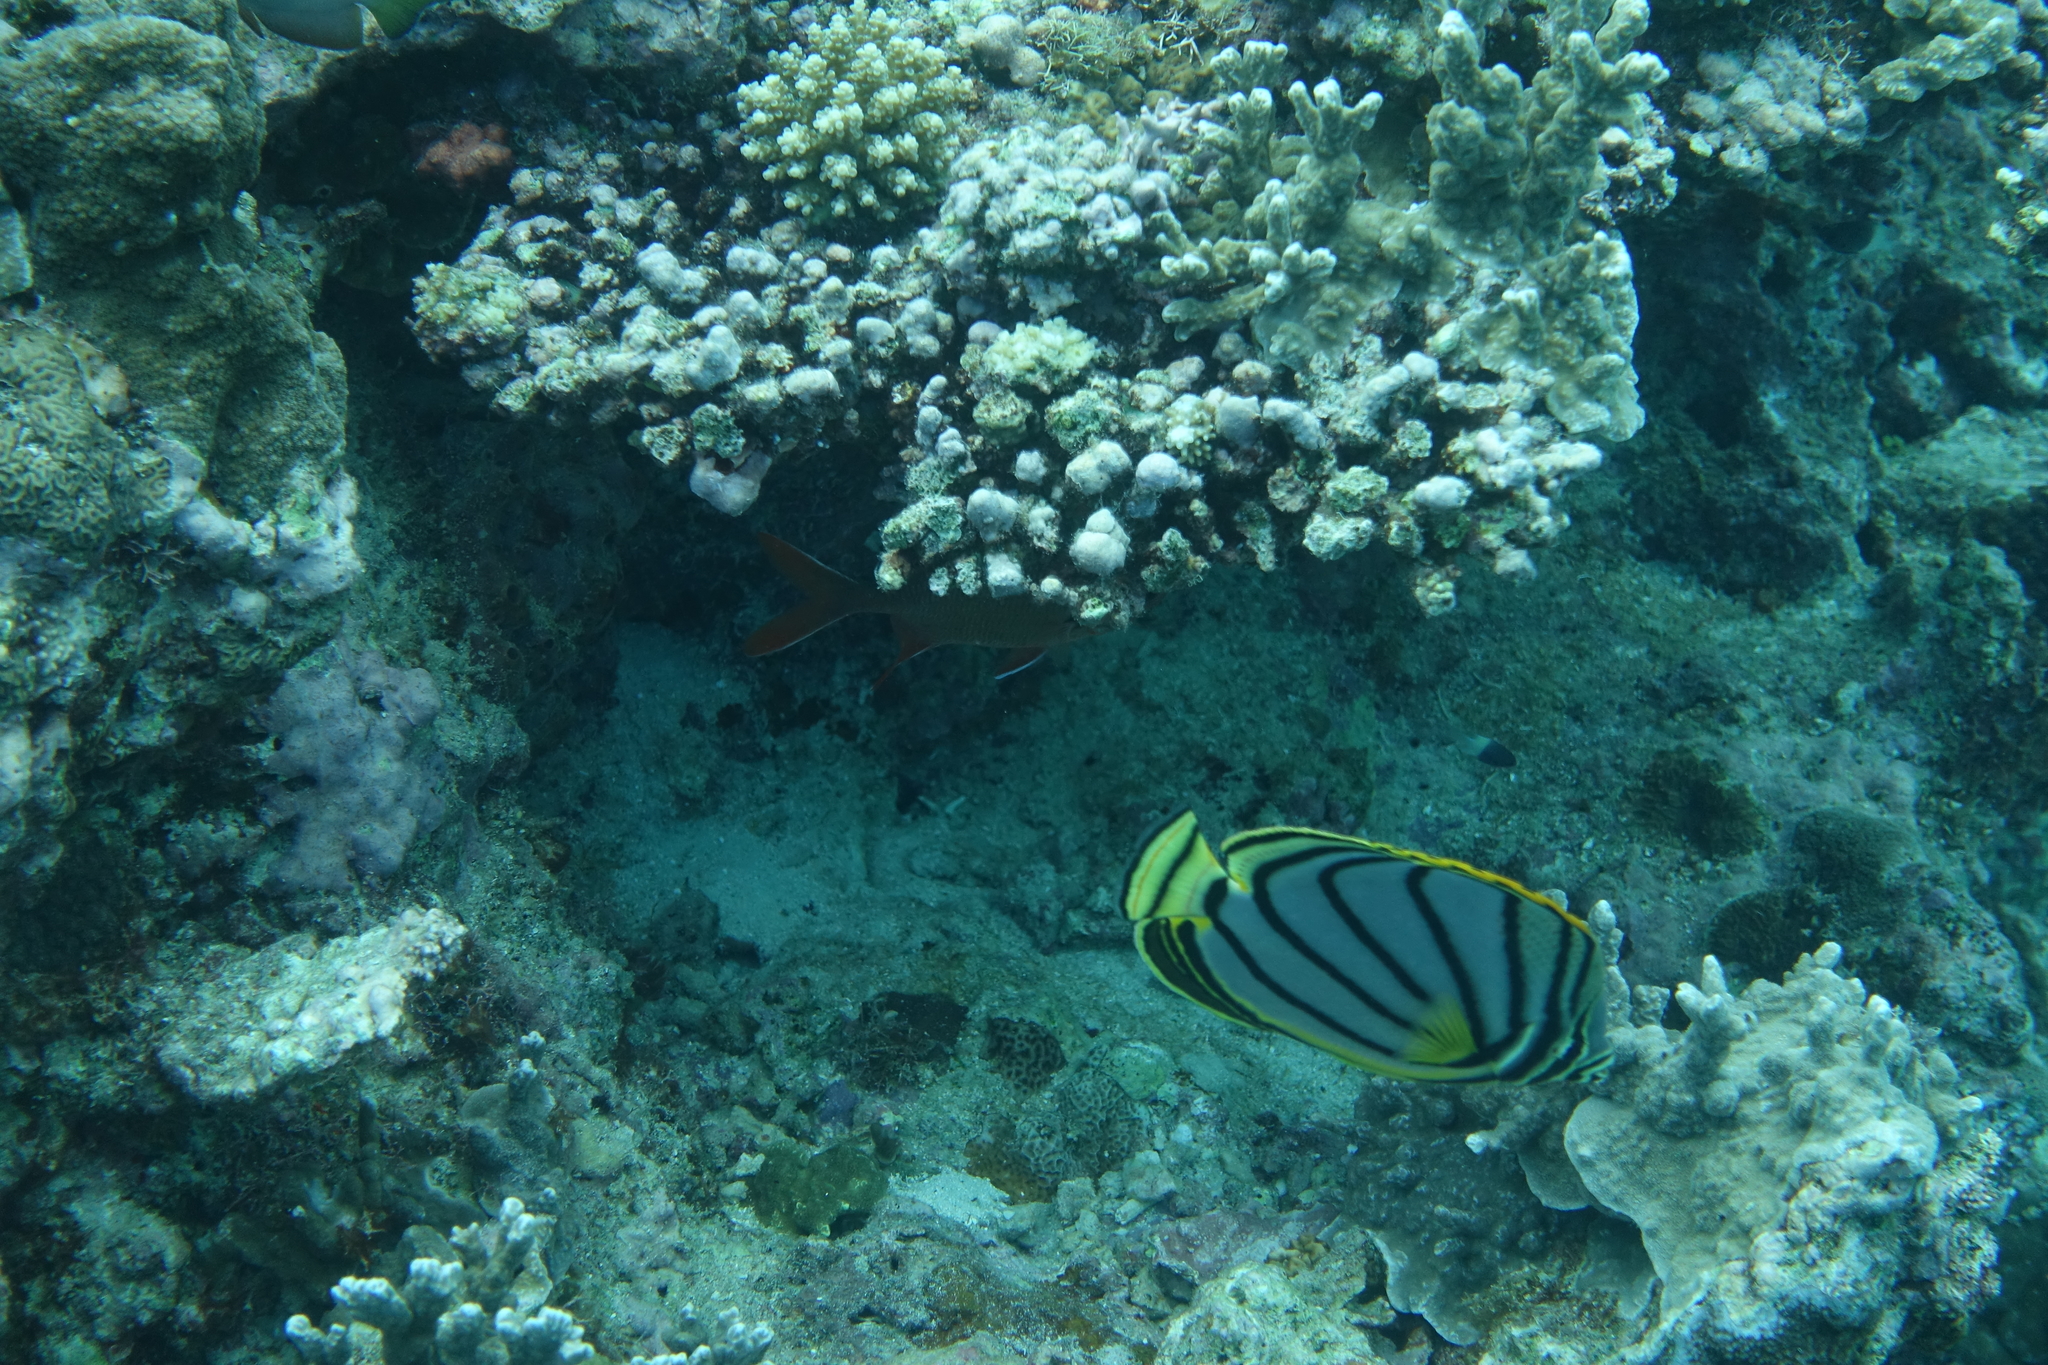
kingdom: Animalia
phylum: Chordata
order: Perciformes
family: Chaetodontidae
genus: Chaetodon
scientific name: Chaetodon meyeri
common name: Meyer's butterflyfish
